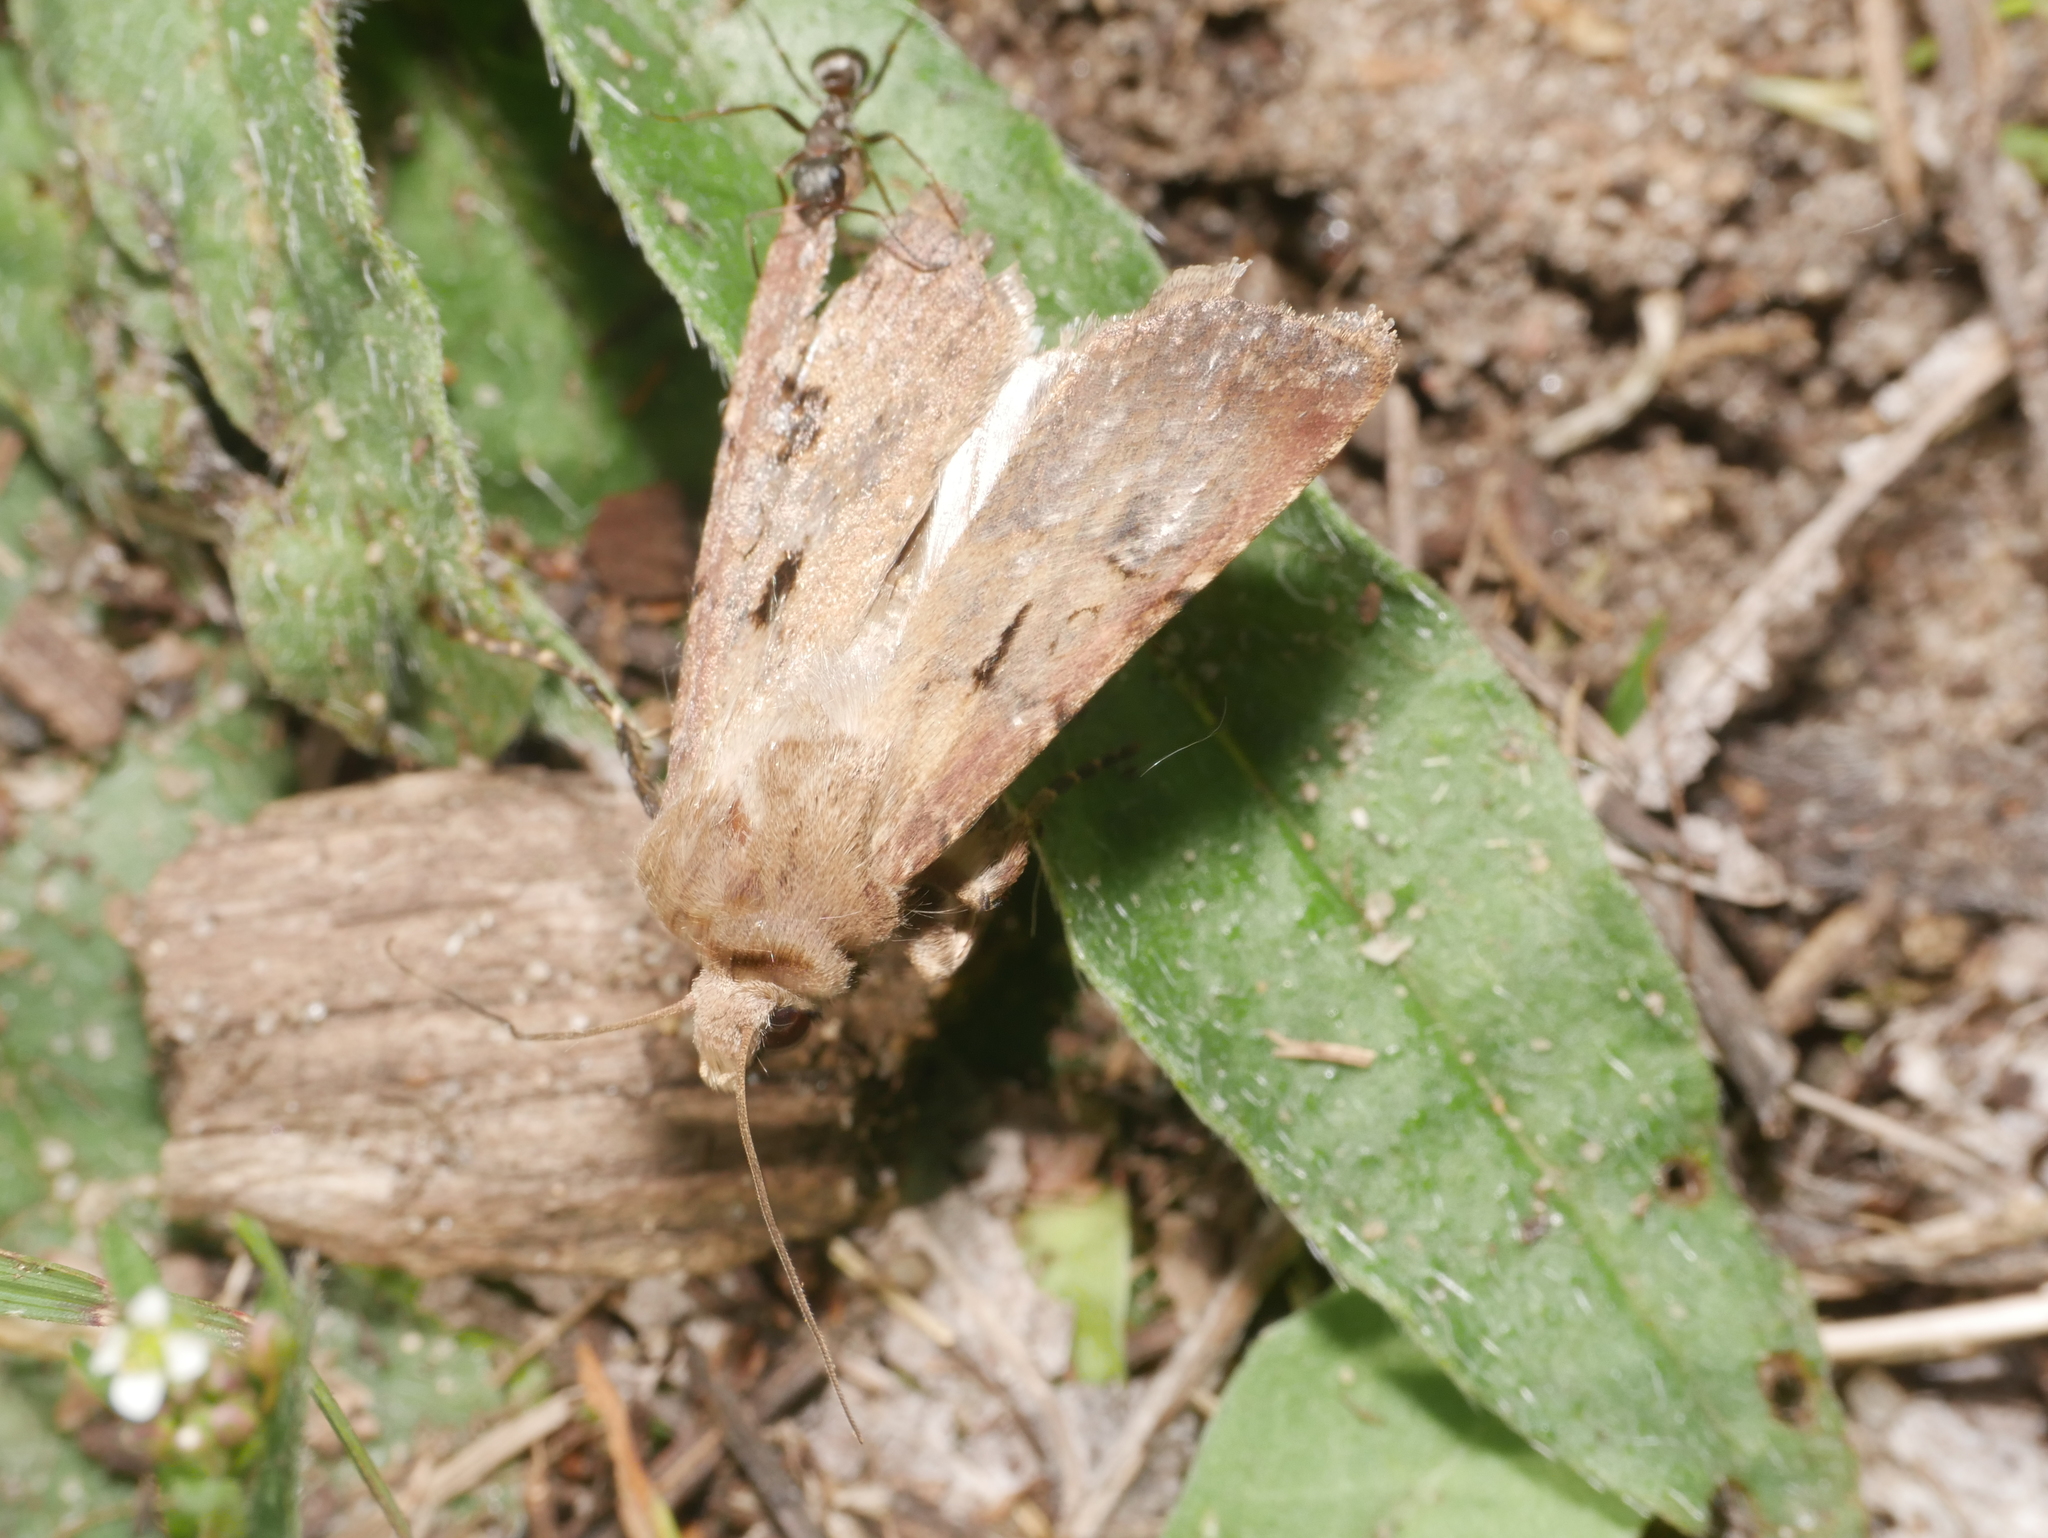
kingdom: Animalia
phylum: Arthropoda
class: Insecta
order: Lepidoptera
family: Noctuidae
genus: Agrotis
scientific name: Agrotis exclamationis
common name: Heart and dart
